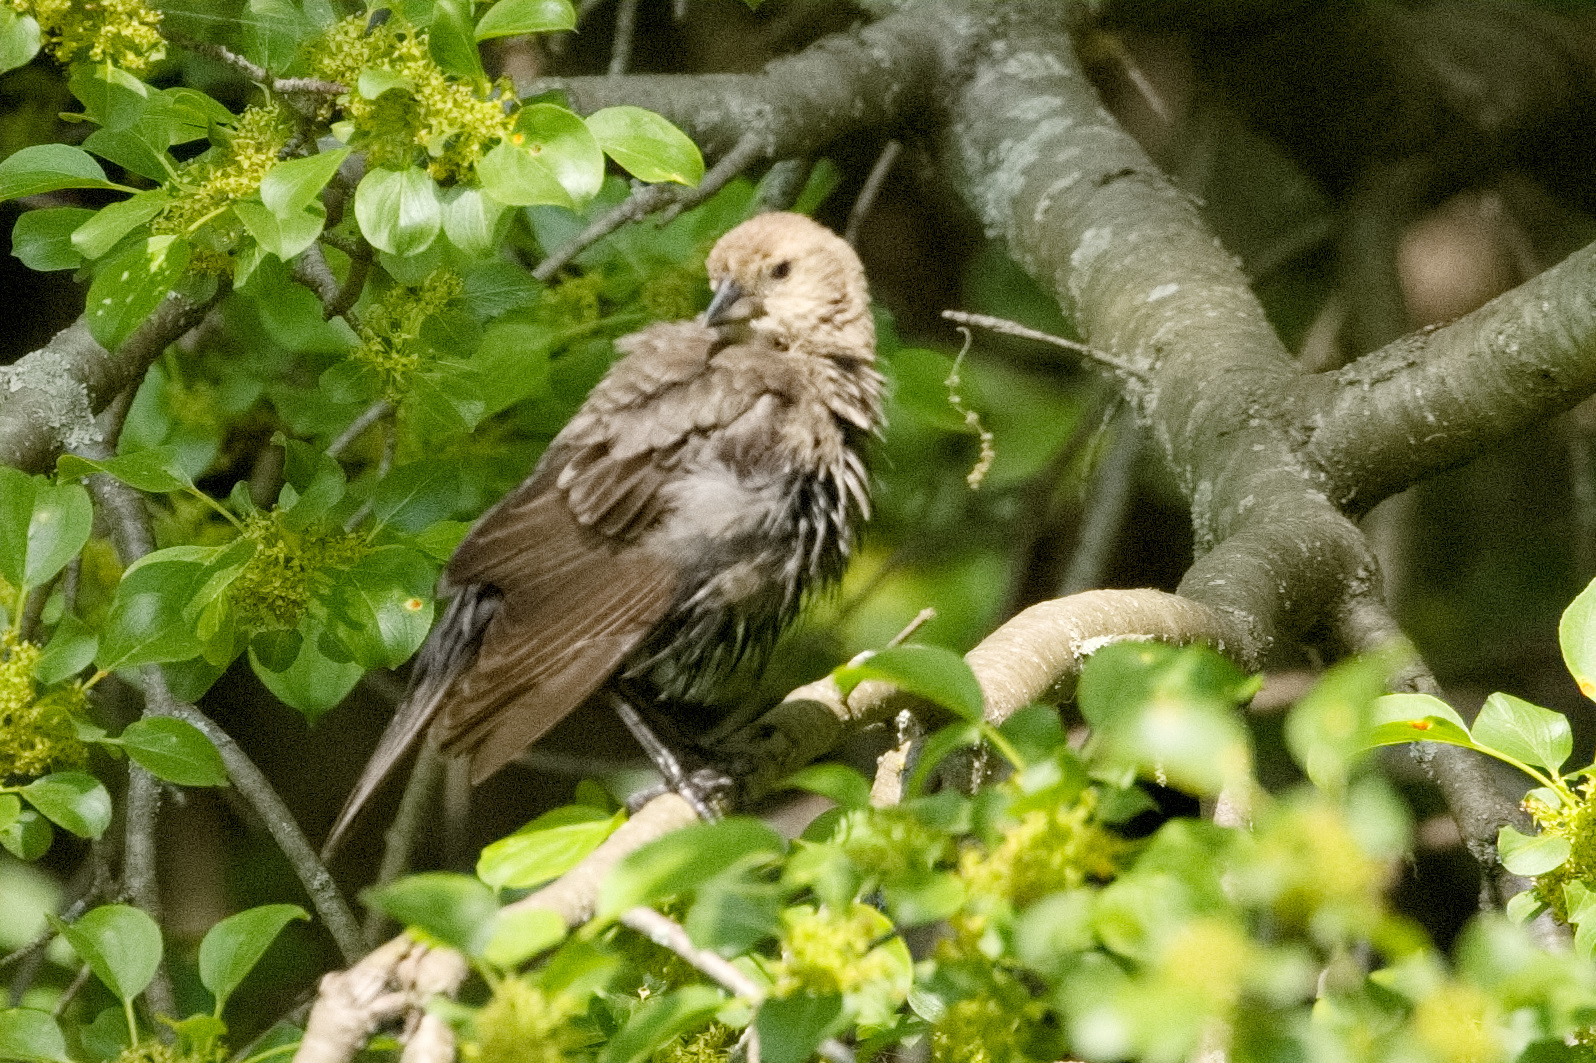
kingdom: Animalia
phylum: Chordata
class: Aves
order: Passeriformes
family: Icteridae
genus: Molothrus
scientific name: Molothrus ater
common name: Brown-headed cowbird
